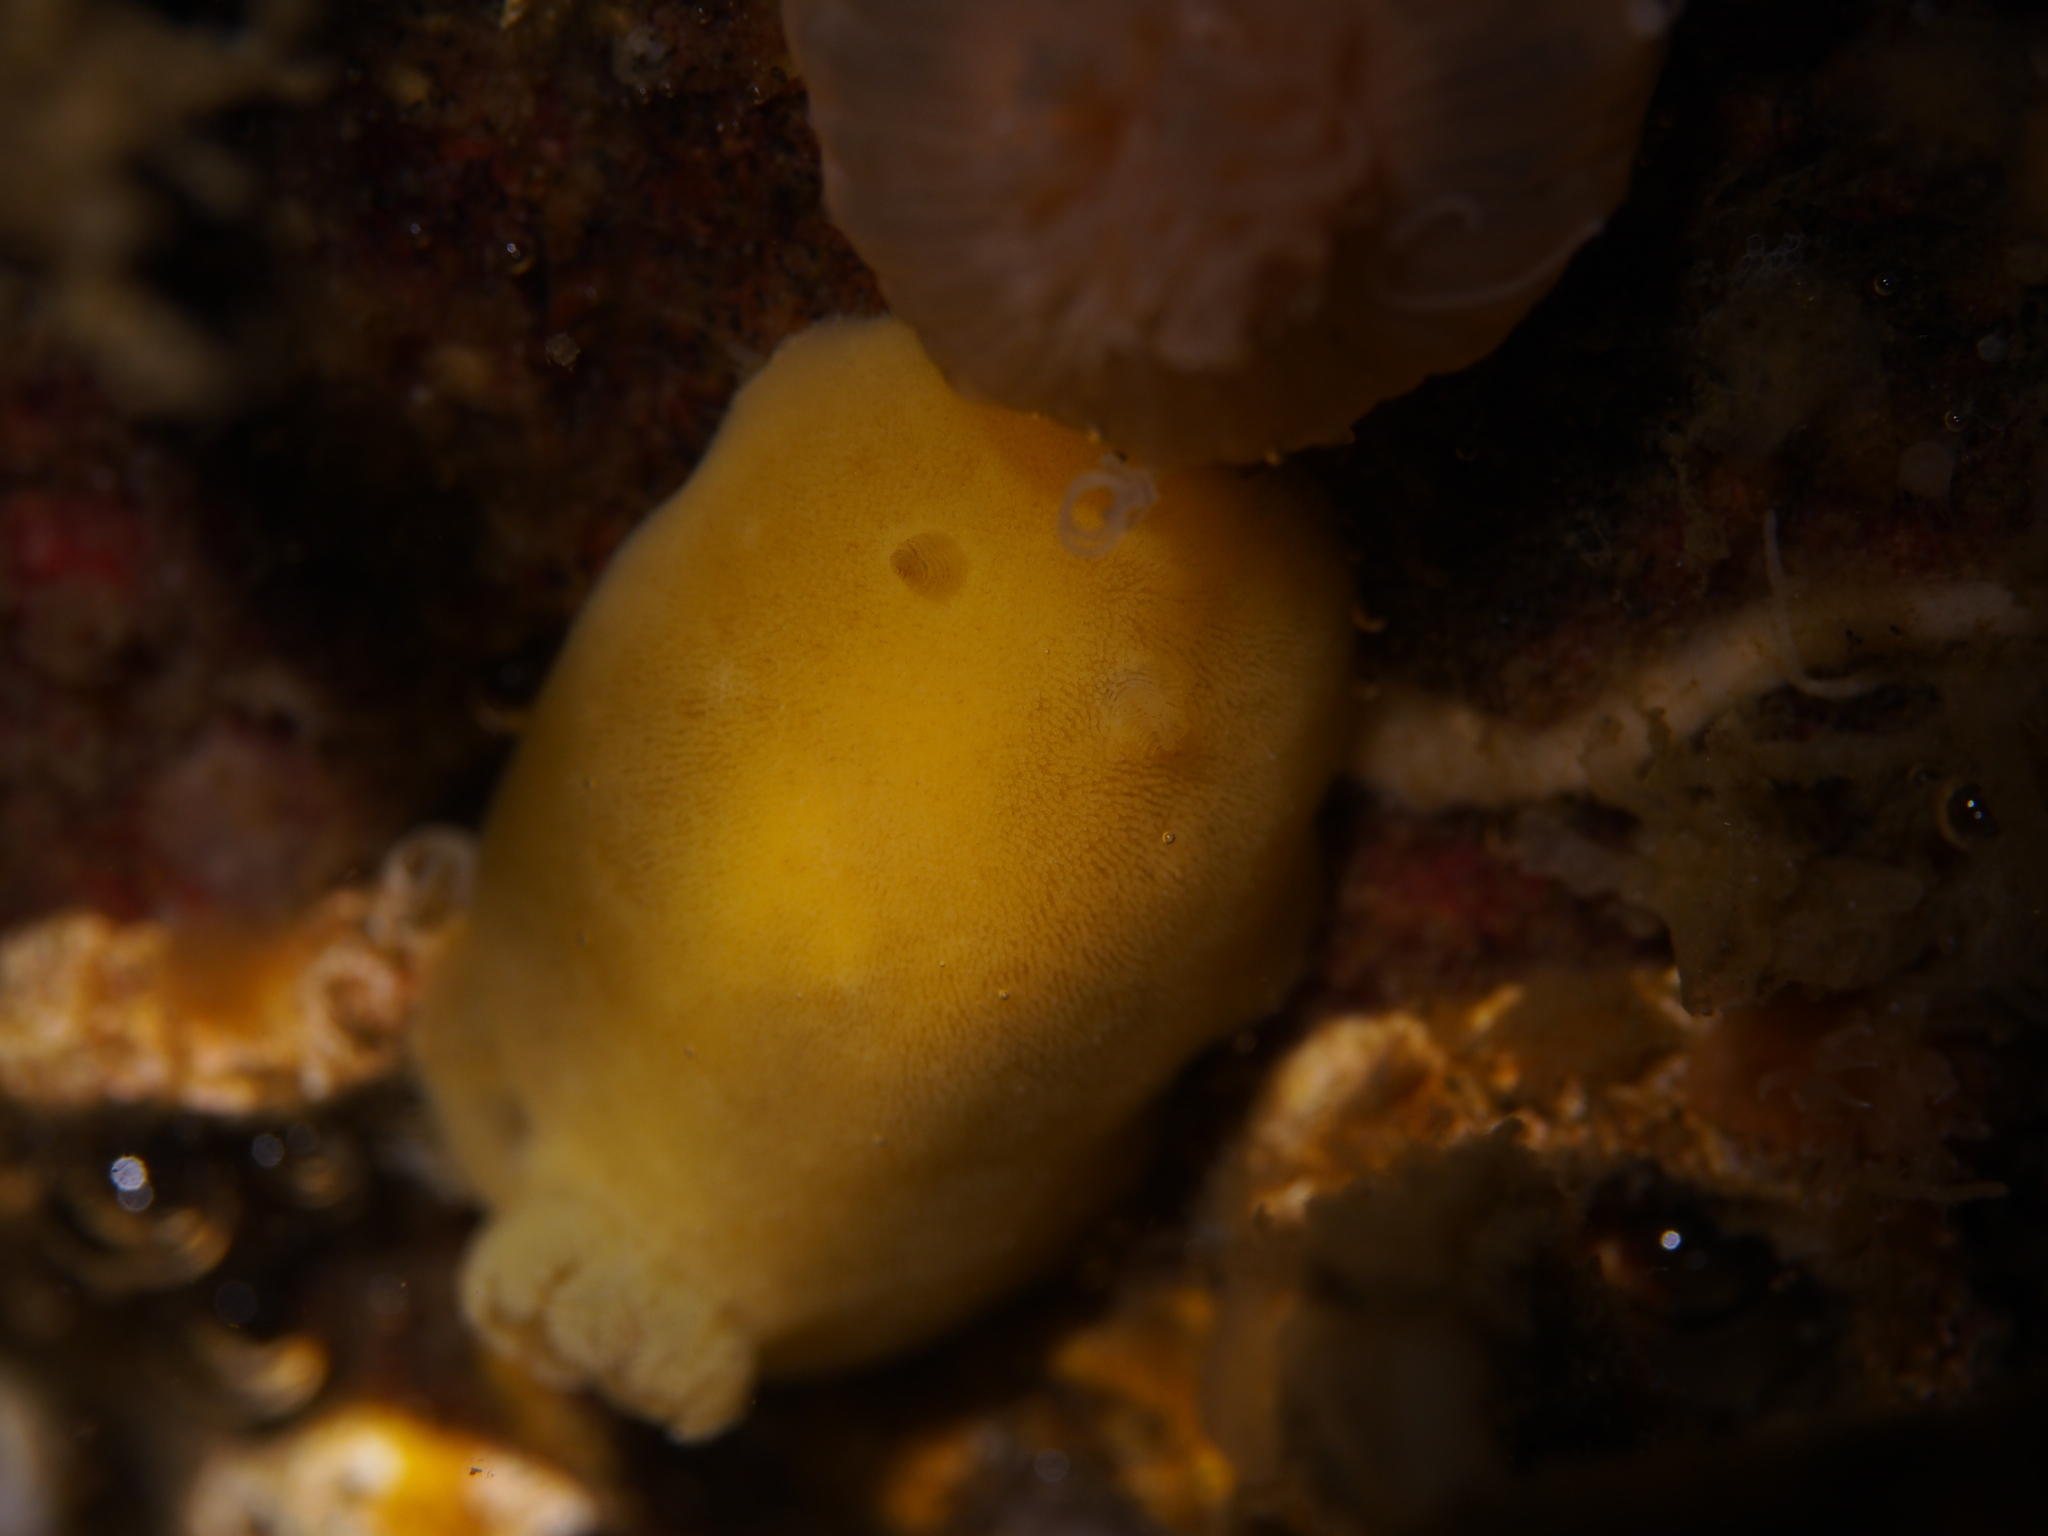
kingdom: Animalia
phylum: Mollusca
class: Gastropoda
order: Nudibranchia
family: Discodorididae
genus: Jorunna
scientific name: Jorunna tomentosa
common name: Grey sea slug
